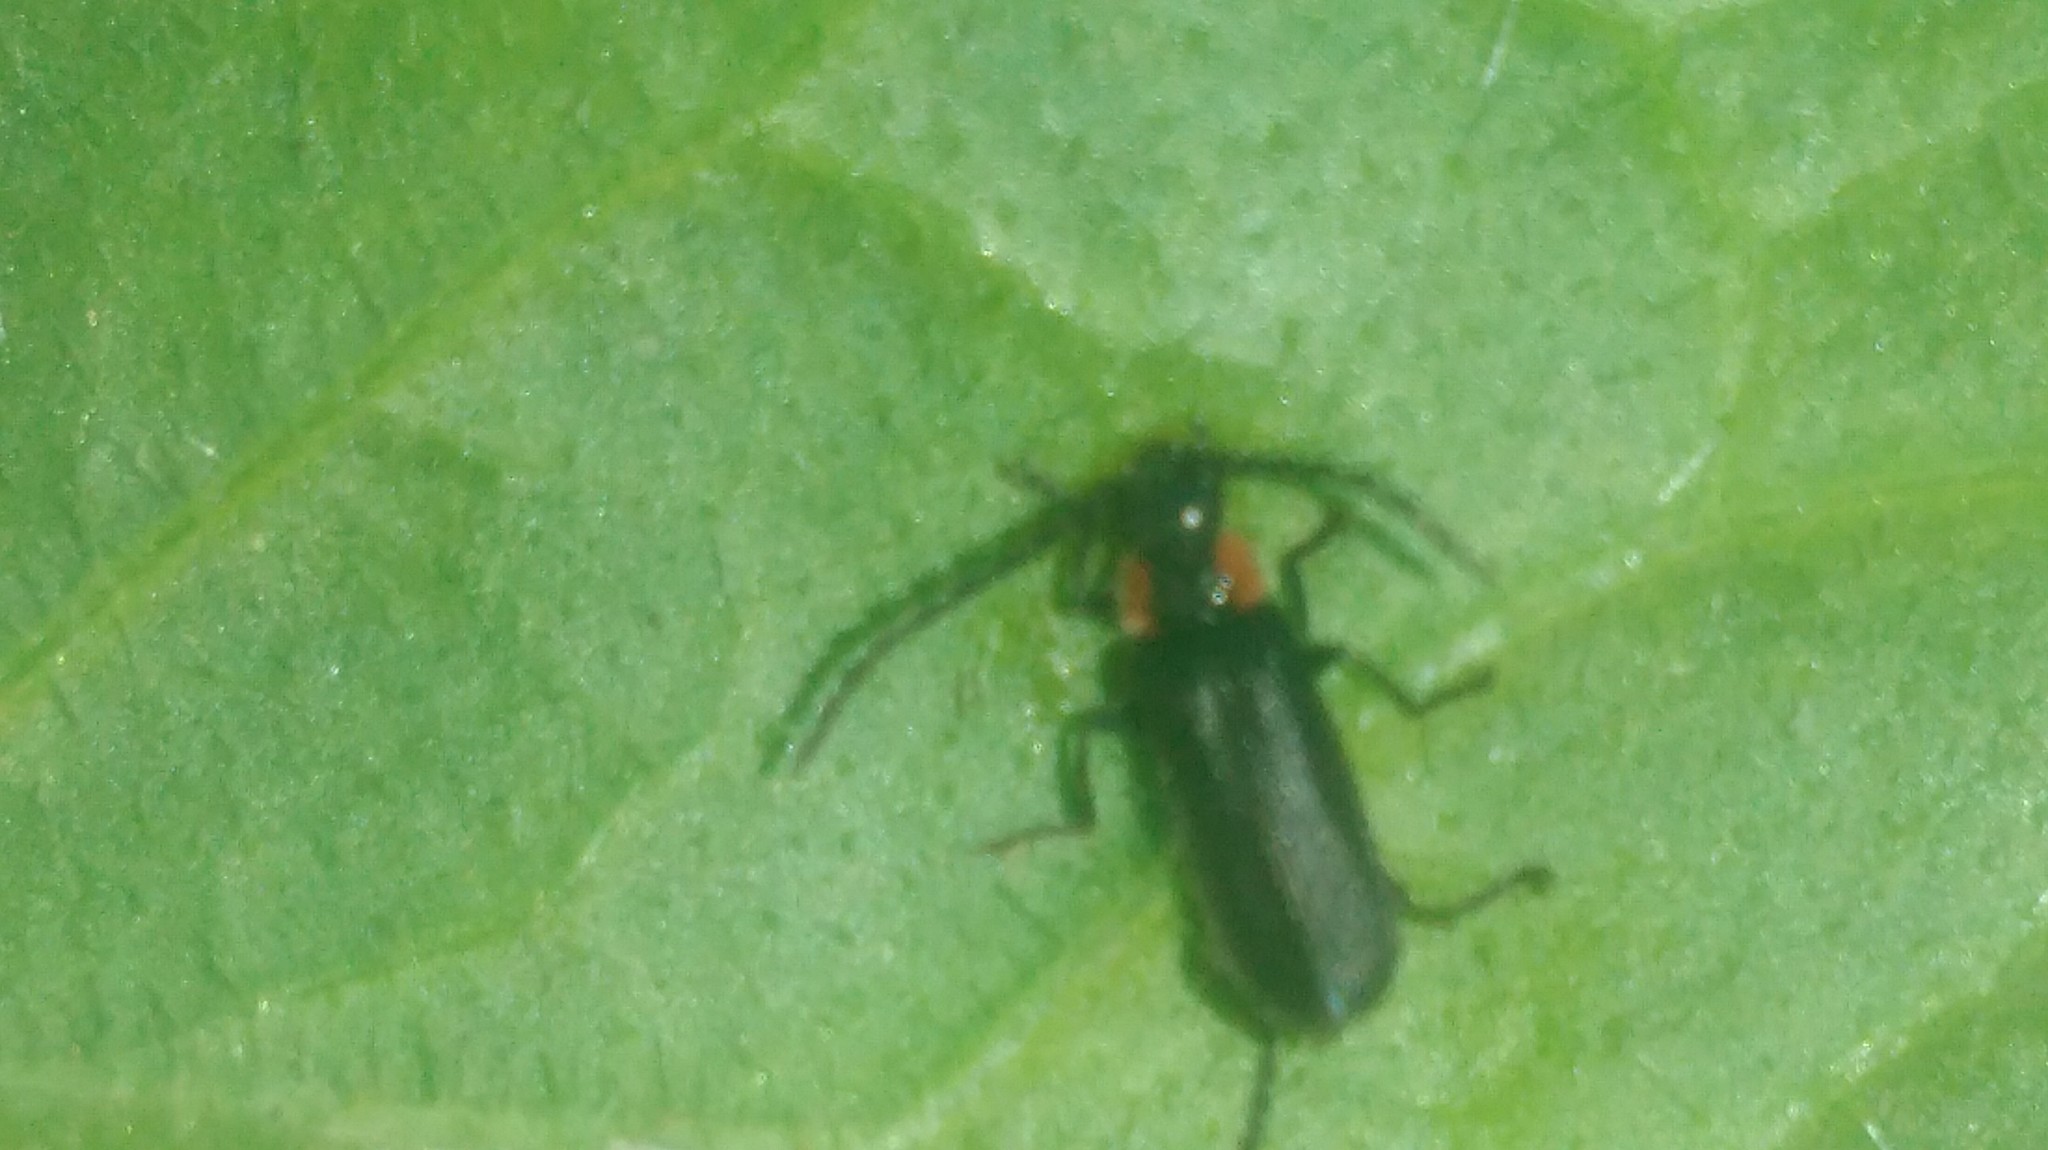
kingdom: Animalia
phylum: Arthropoda
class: Insecta
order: Coleoptera
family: Cantharidae
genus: Polemius
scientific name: Polemius
